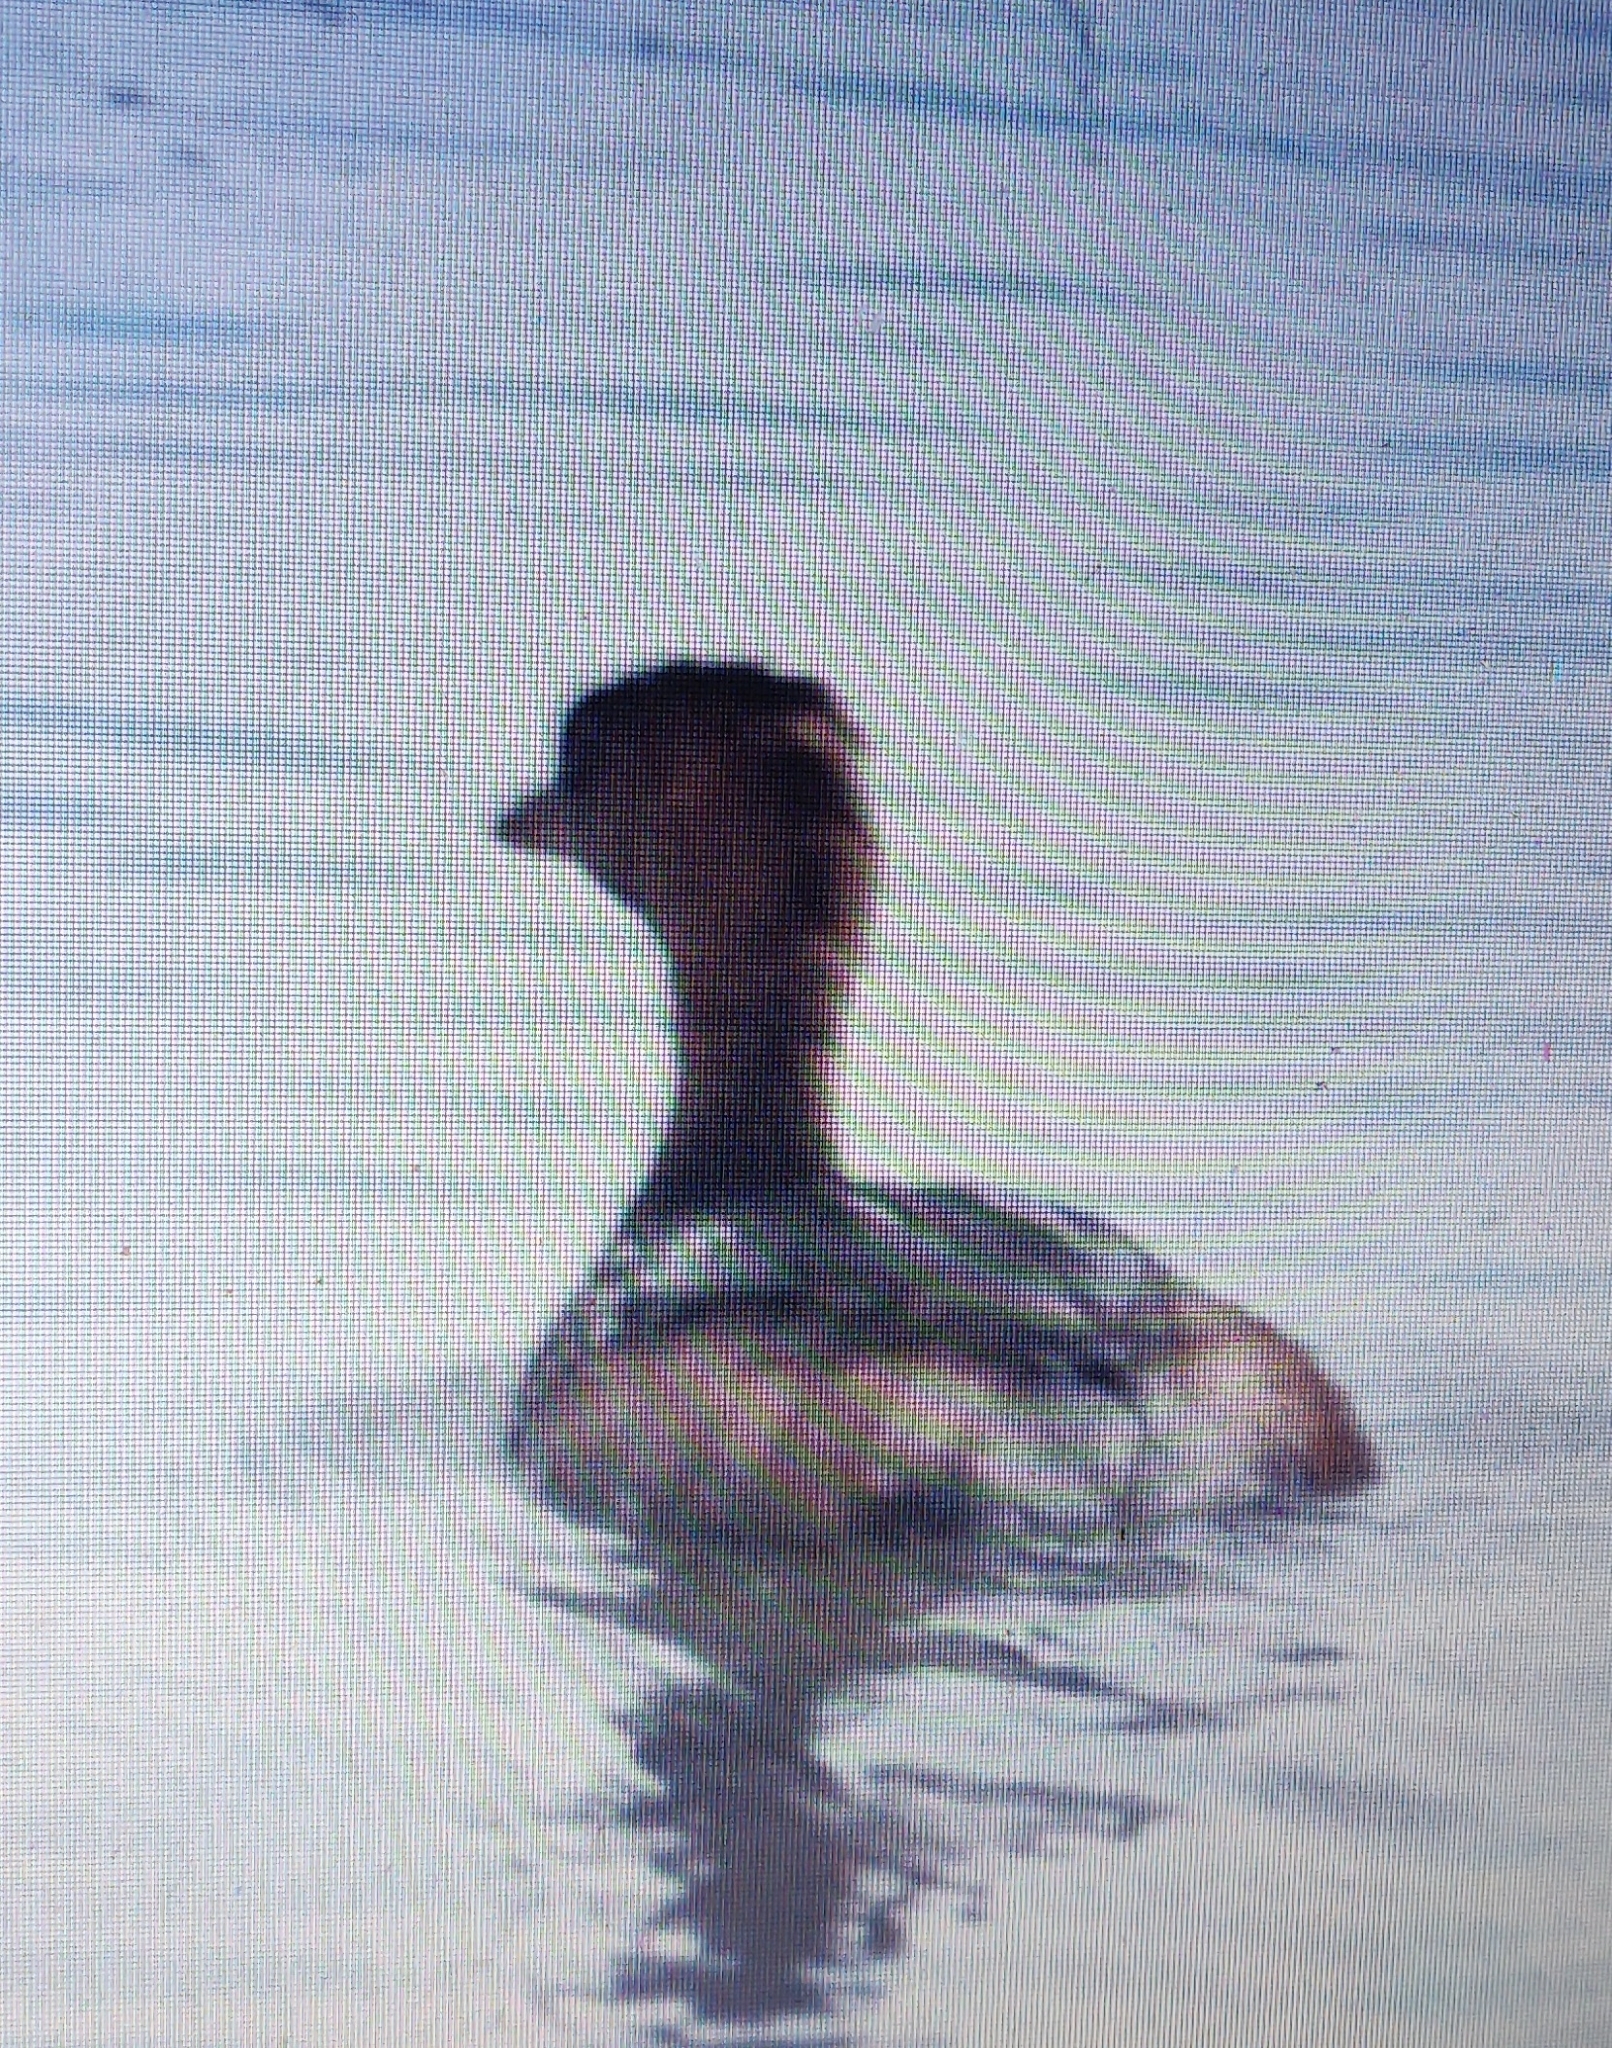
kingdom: Animalia
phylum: Chordata
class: Aves
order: Podicipediformes
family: Podicipedidae
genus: Podilymbus
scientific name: Podilymbus podiceps
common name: Pied-billed grebe
